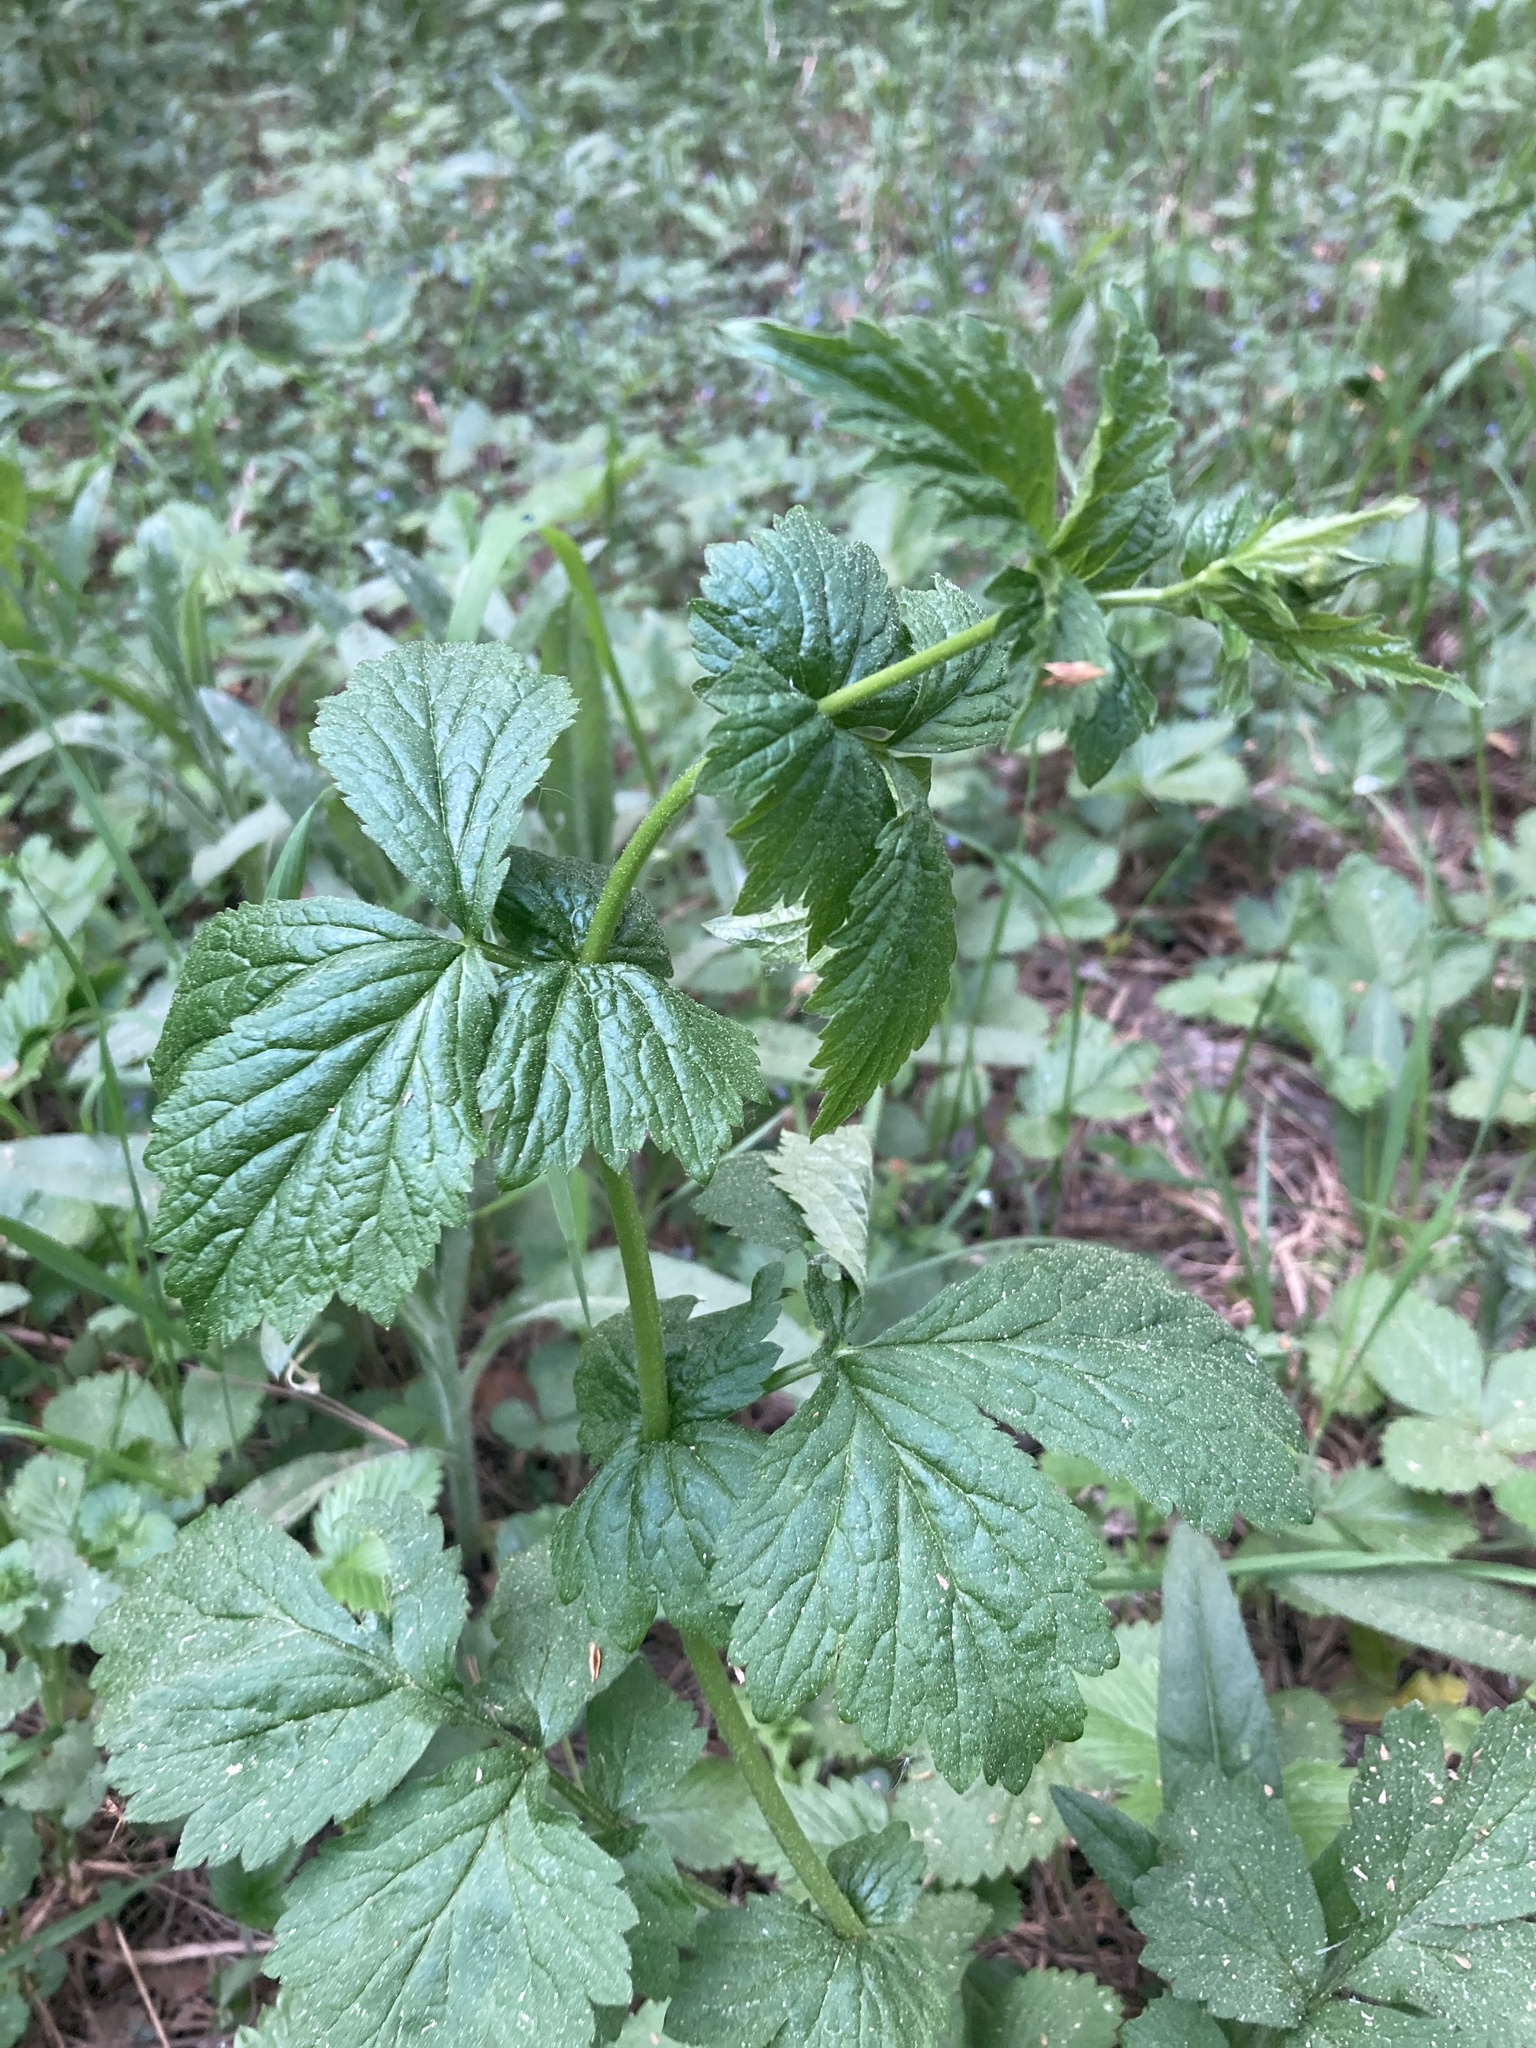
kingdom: Plantae
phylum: Tracheophyta
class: Magnoliopsida
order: Rosales
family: Rosaceae
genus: Geum
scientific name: Geum urbanum
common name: Wood avens
